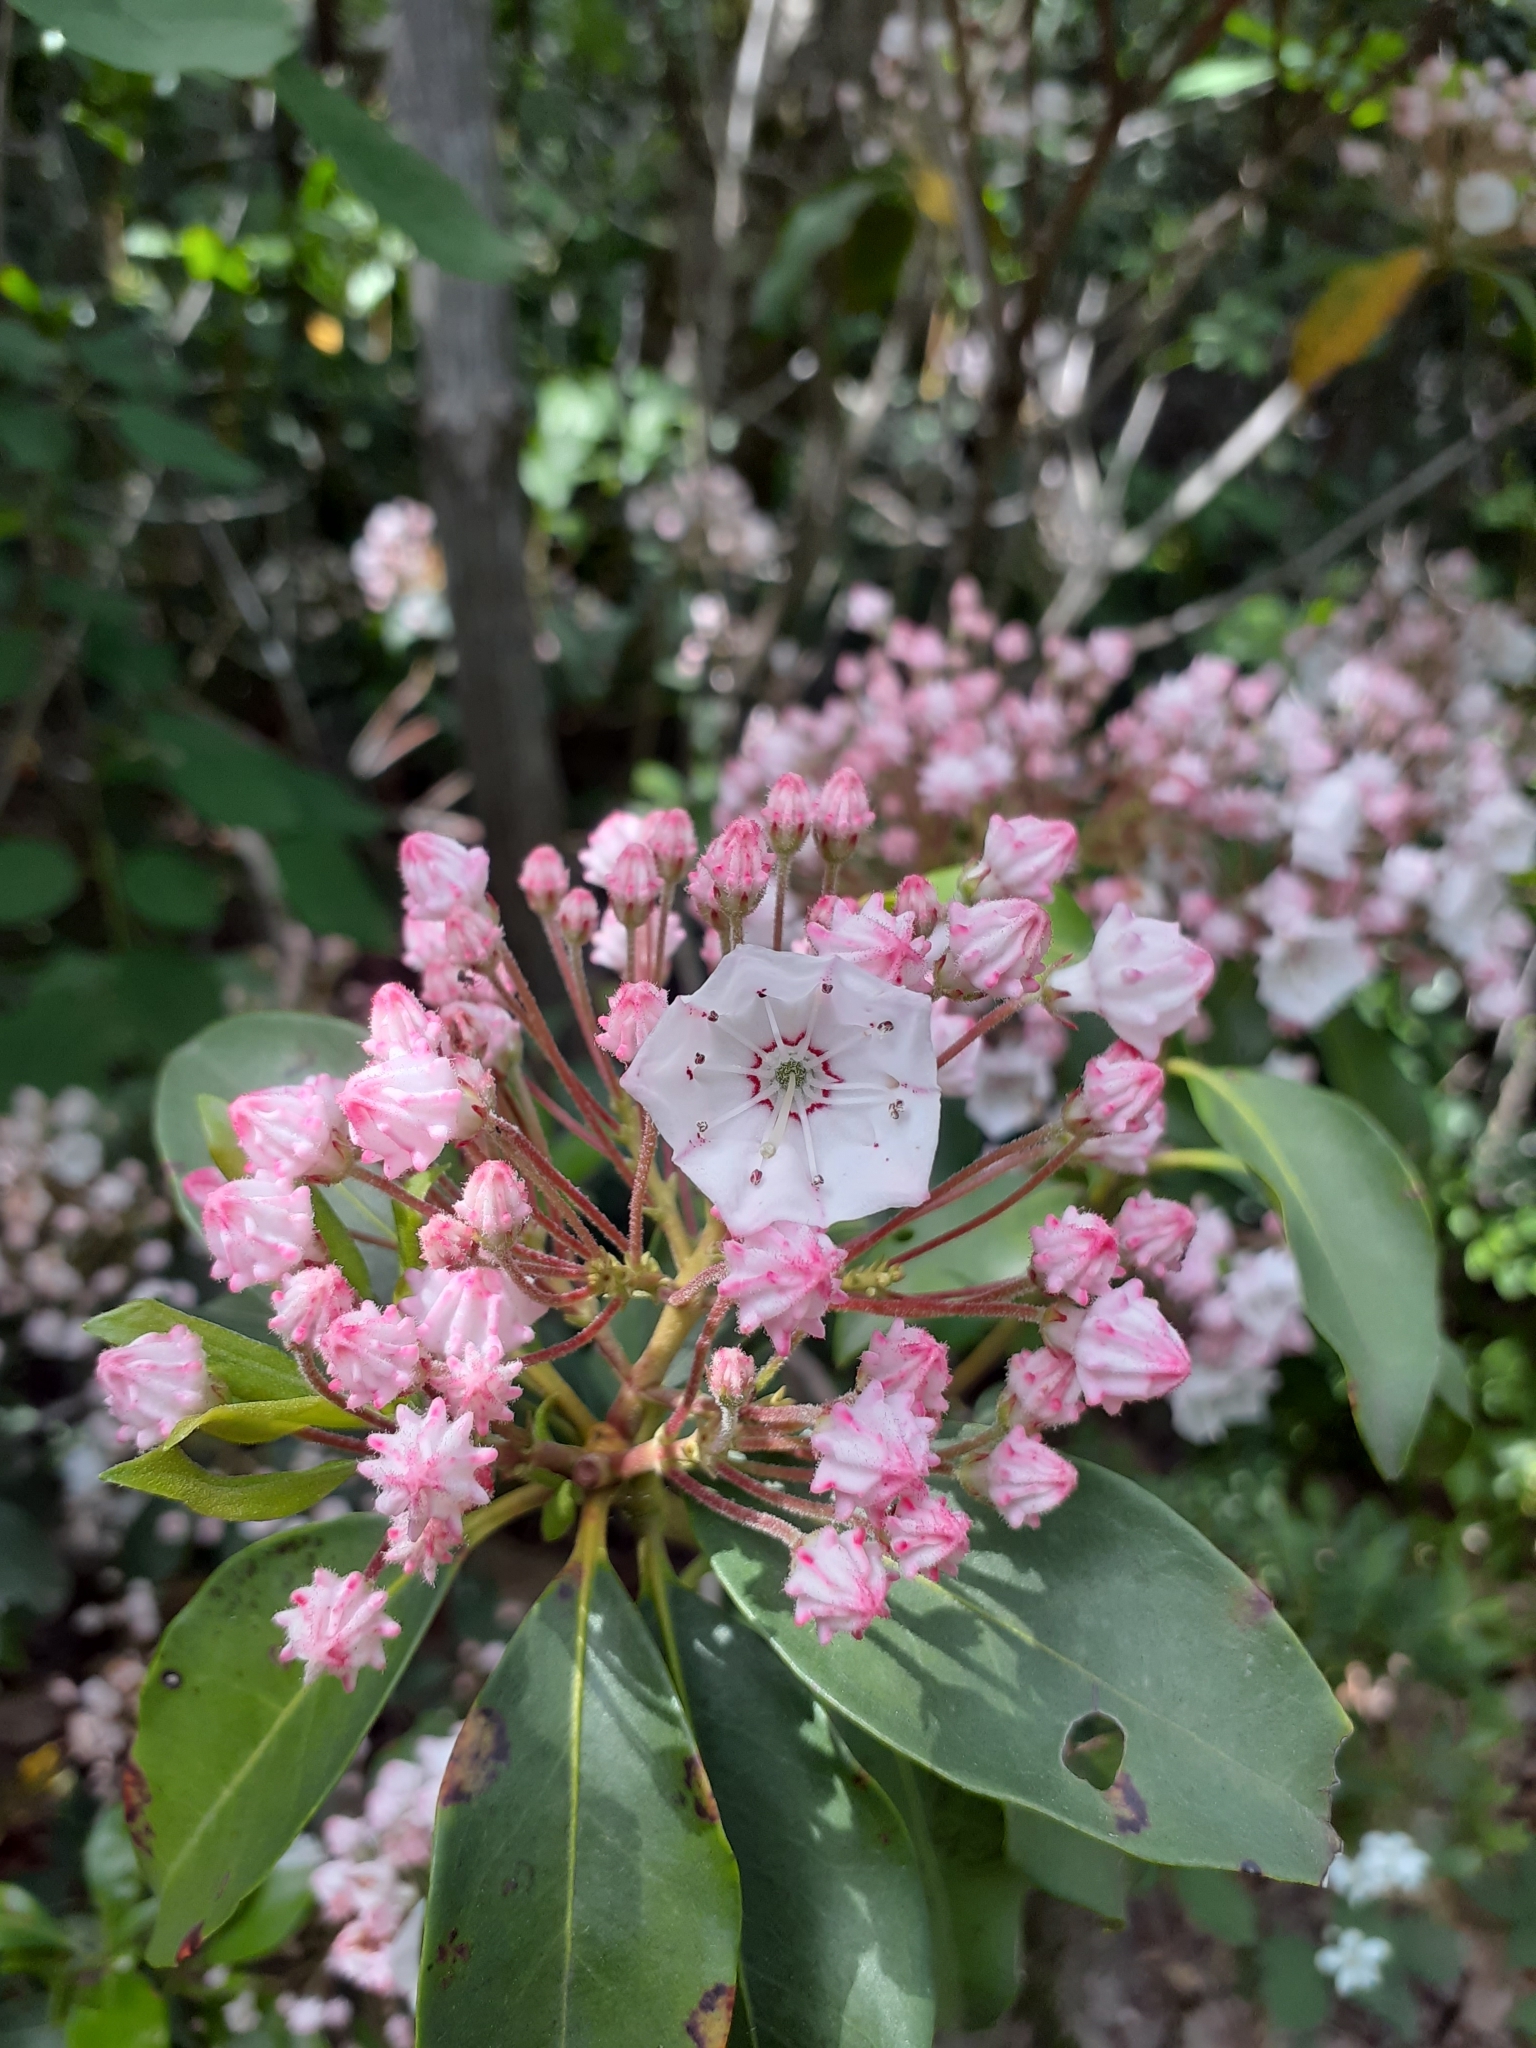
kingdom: Plantae
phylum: Tracheophyta
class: Magnoliopsida
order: Ericales
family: Ericaceae
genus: Kalmia
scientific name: Kalmia latifolia
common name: Mountain-laurel
